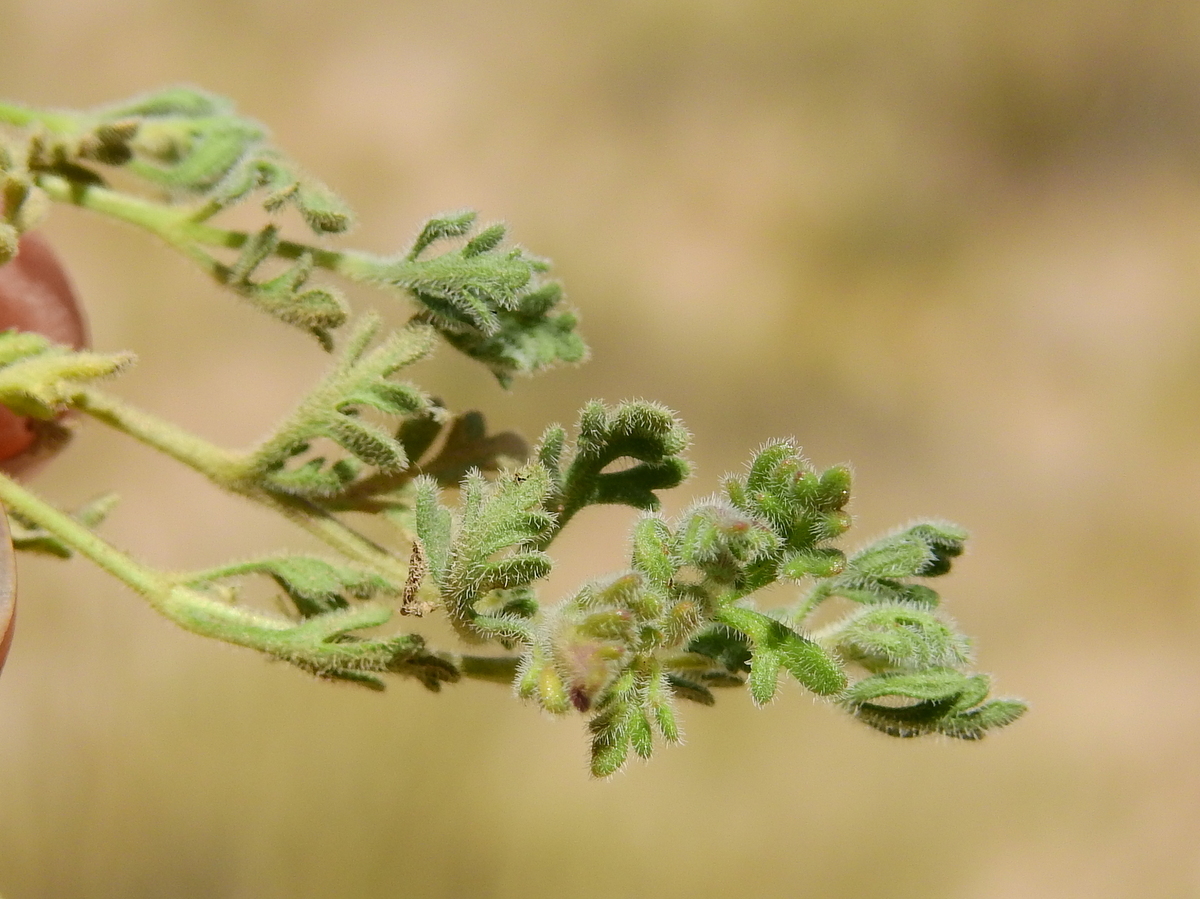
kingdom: Plantae
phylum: Tracheophyta
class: Magnoliopsida
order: Lamiales
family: Verbenaceae
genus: Verbena
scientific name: Verbena macrosperma
